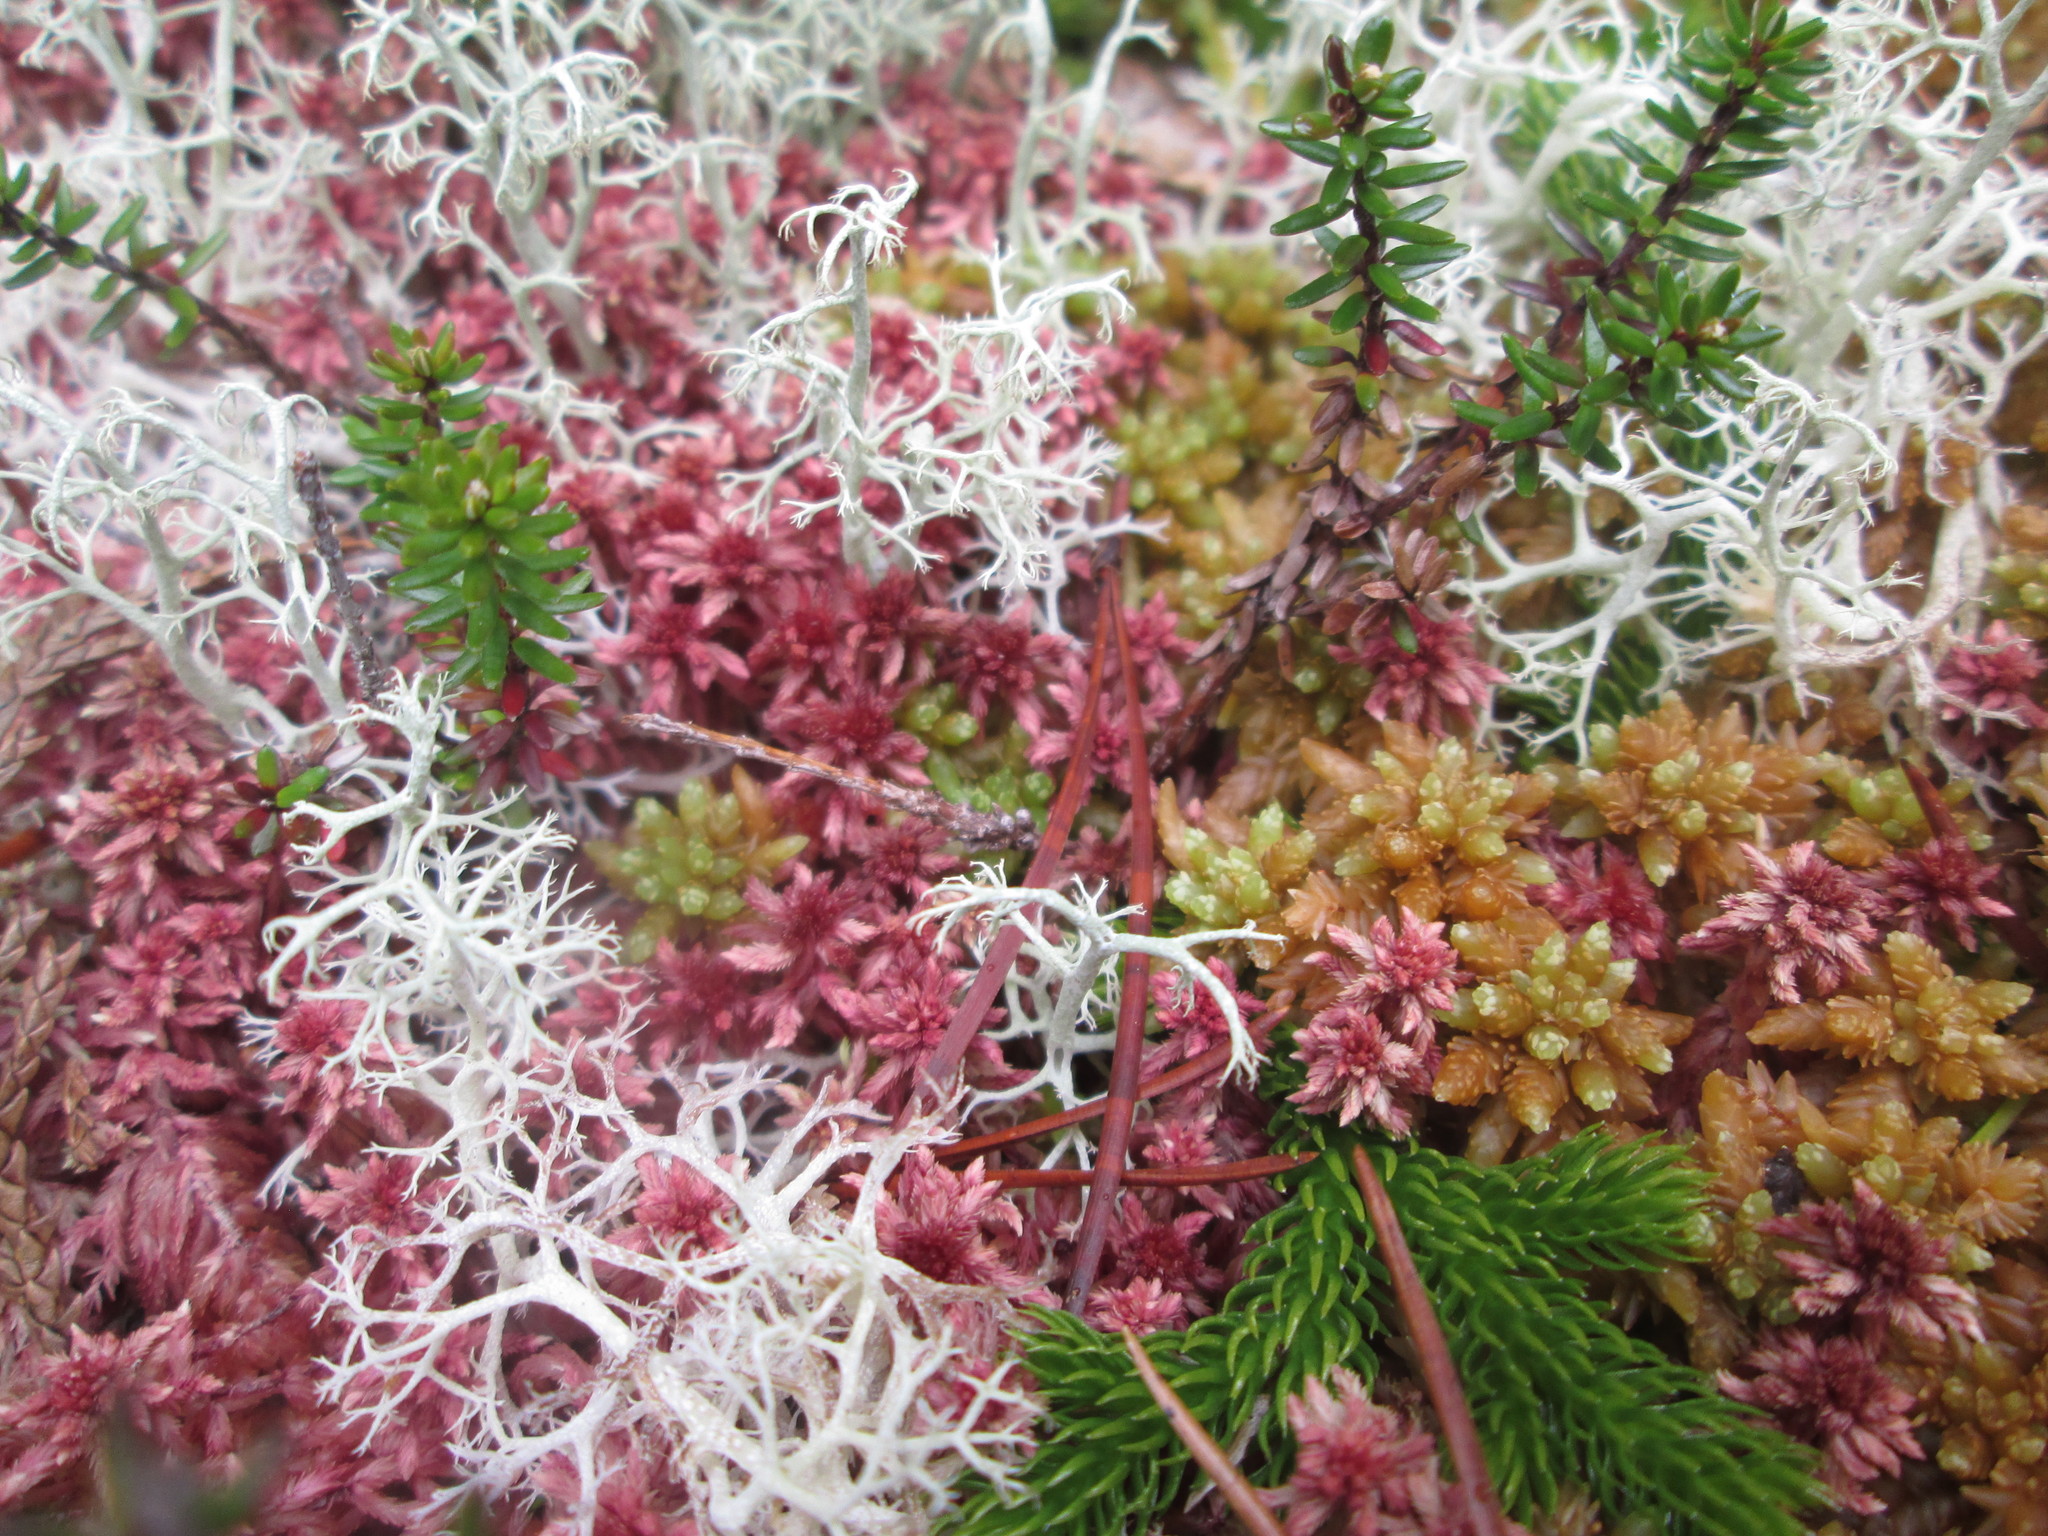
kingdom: Plantae
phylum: Tracheophyta
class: Magnoliopsida
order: Ericales
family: Ericaceae
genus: Empetrum
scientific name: Empetrum nigrum
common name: Black crowberry
